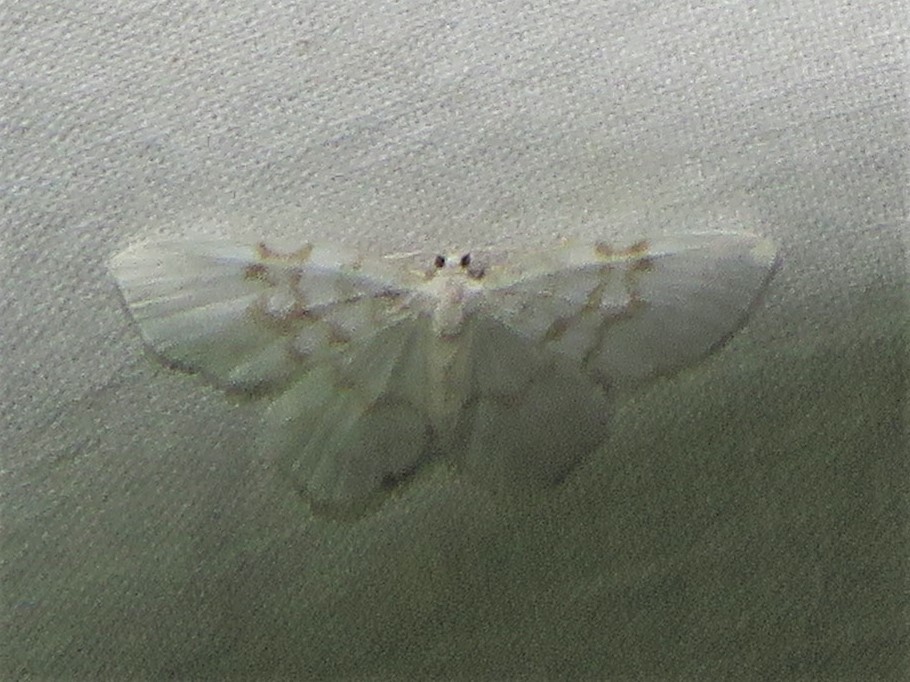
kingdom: Animalia
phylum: Arthropoda
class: Insecta
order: Lepidoptera
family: Geometridae
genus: Hydrelia
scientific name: Hydrelia albifera
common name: Fragile white carpet
